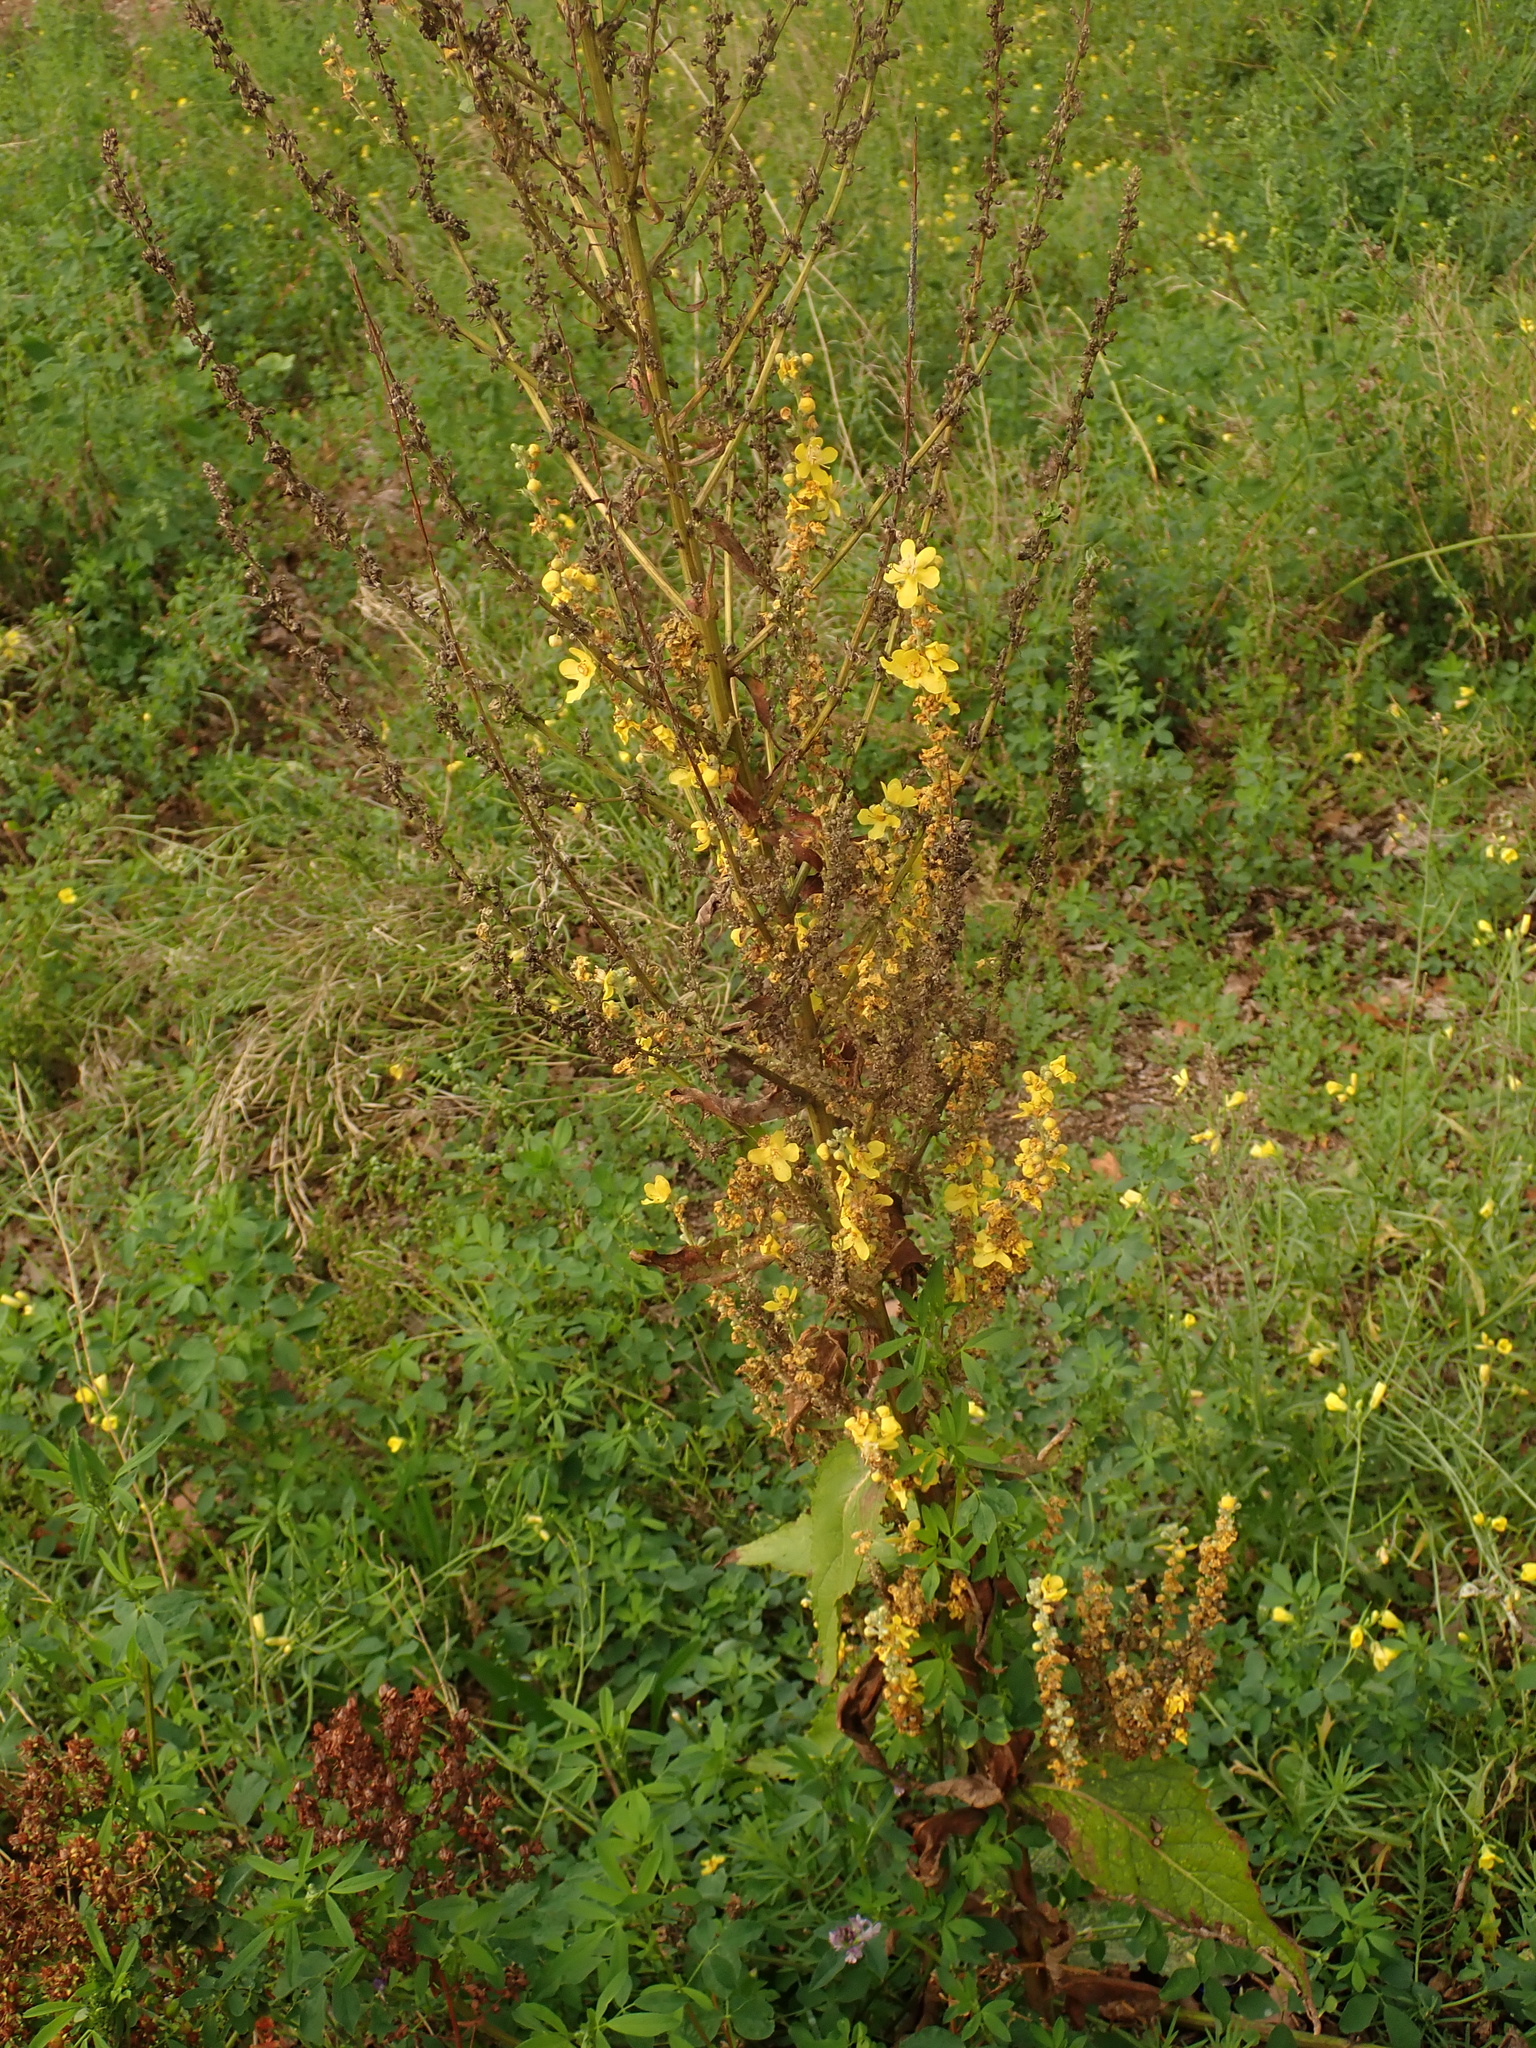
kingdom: Plantae
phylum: Tracheophyta
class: Magnoliopsida
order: Lamiales
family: Scrophulariaceae
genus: Verbascum
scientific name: Verbascum lychnitis
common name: White mullein
